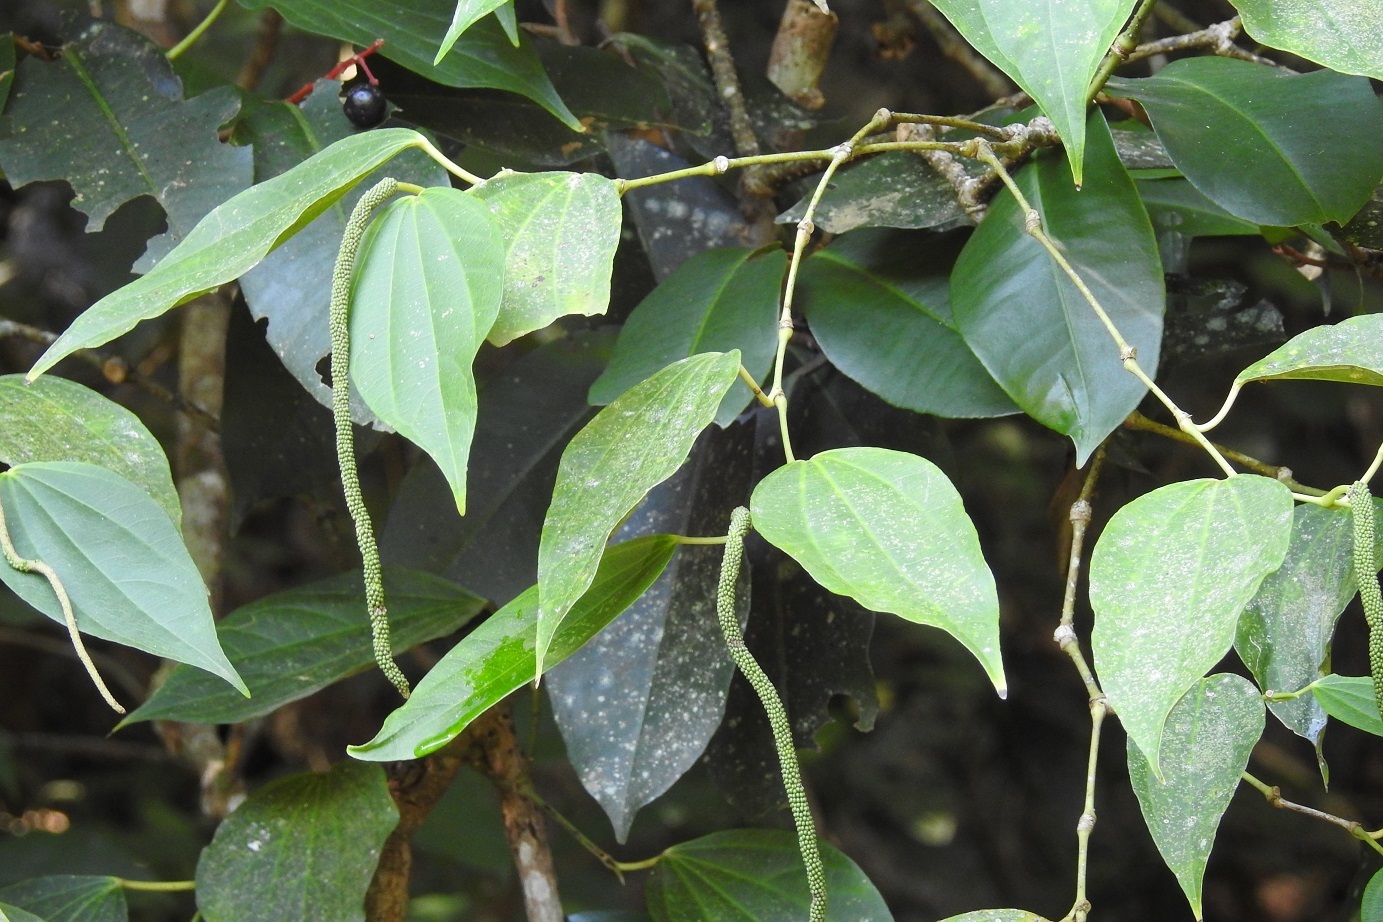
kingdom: Plantae
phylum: Tracheophyta
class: Magnoliopsida
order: Piperales
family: Piperaceae
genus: Piper
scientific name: Piper psilorhachis
